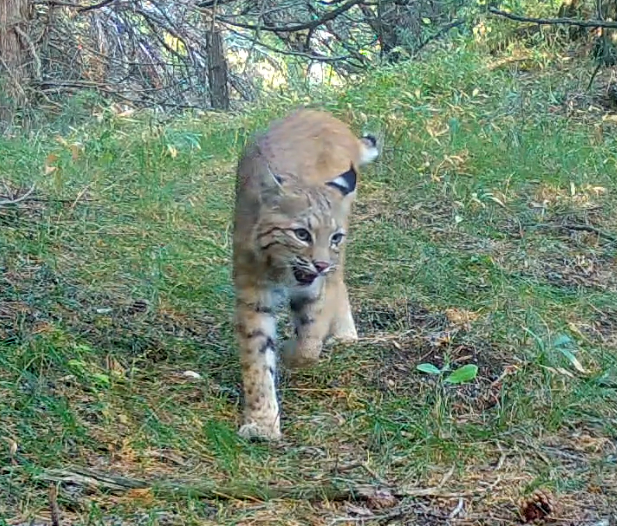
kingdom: Animalia
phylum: Chordata
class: Mammalia
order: Carnivora
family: Felidae
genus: Lynx
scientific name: Lynx rufus
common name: Bobcat
